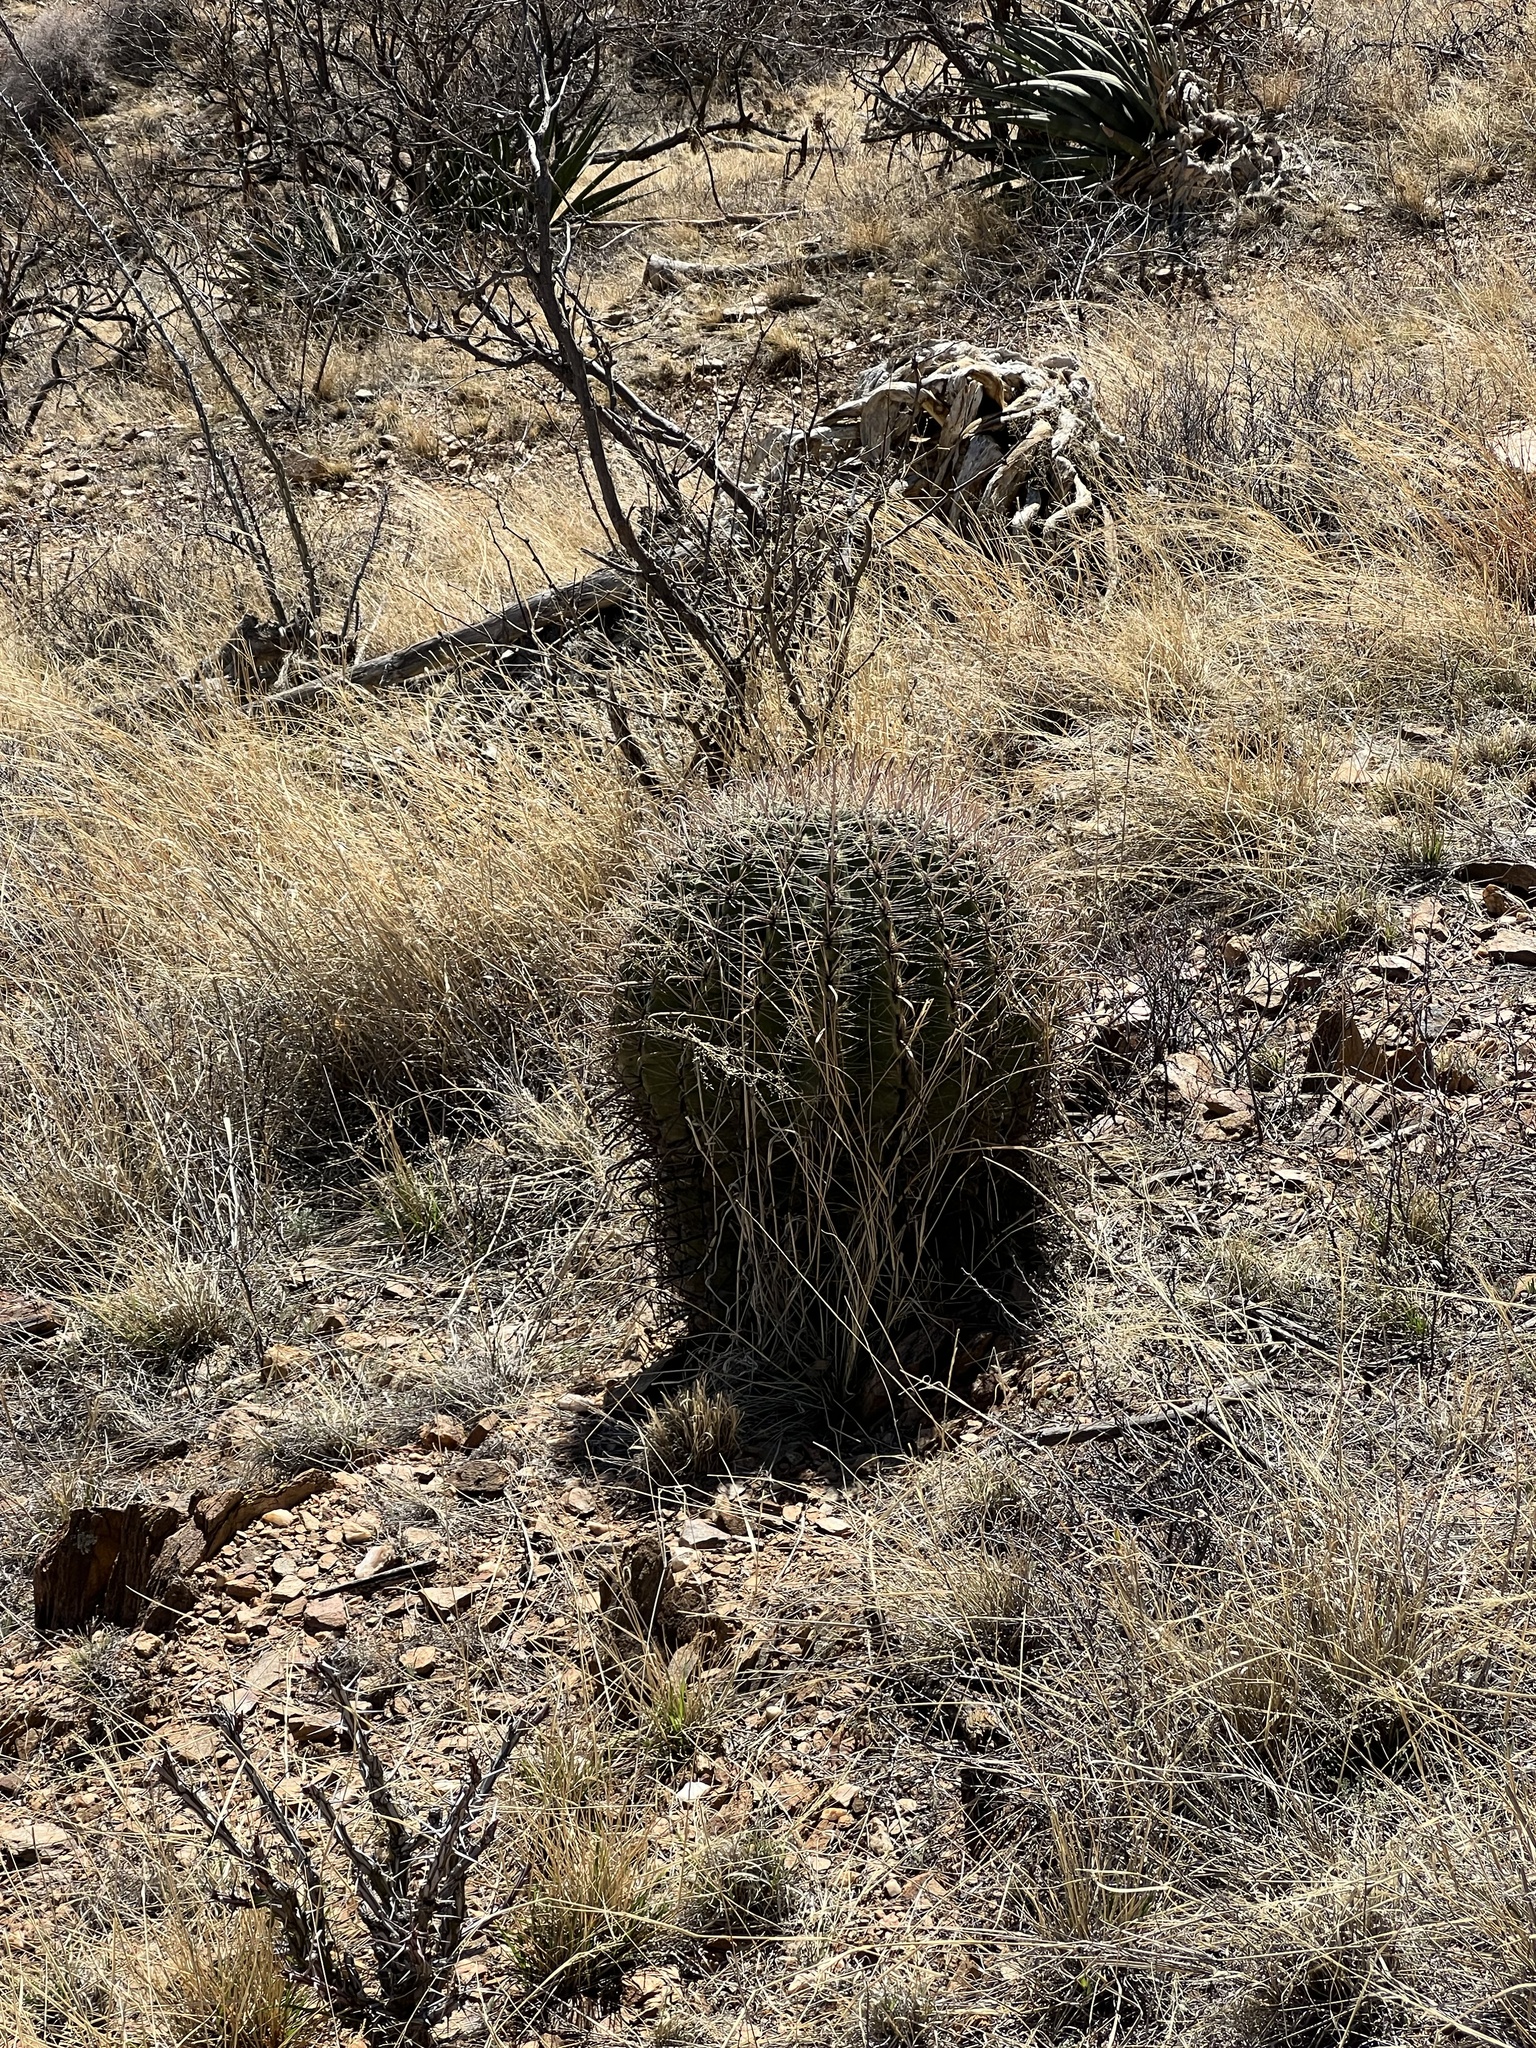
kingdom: Plantae
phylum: Tracheophyta
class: Magnoliopsida
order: Caryophyllales
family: Cactaceae
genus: Ferocactus
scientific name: Ferocactus wislizeni
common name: Candy barrel cactus
